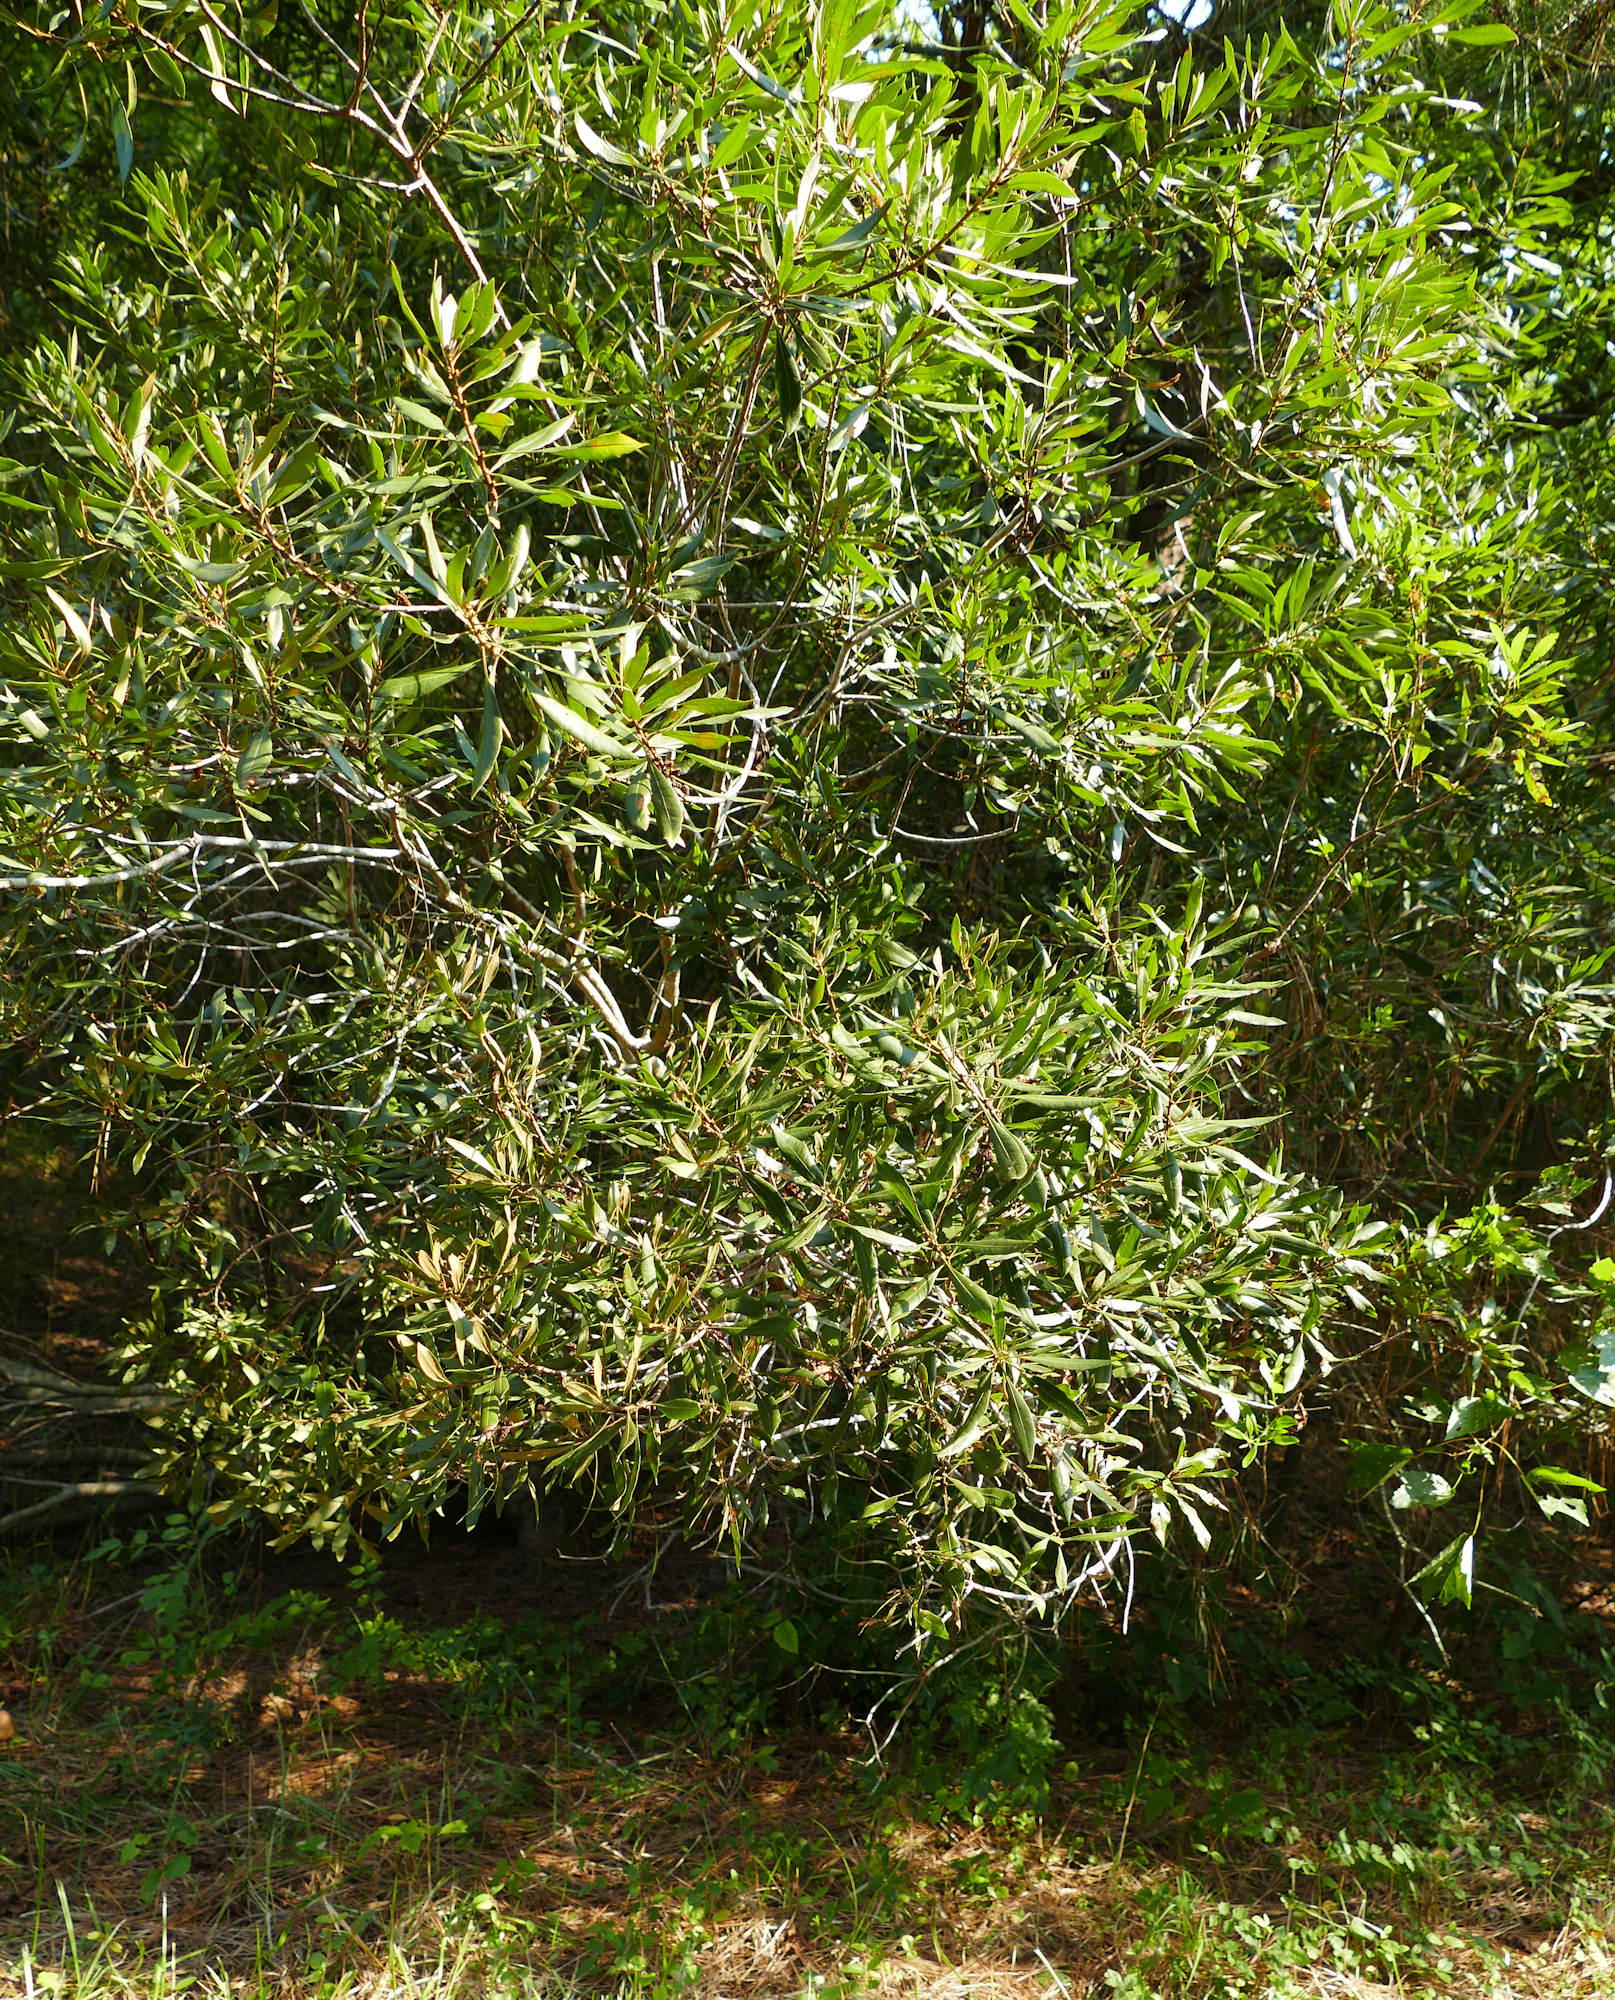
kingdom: Plantae
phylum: Tracheophyta
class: Magnoliopsida
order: Fagales
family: Myricaceae
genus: Morella
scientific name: Morella cerifera
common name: Wax myrtle
